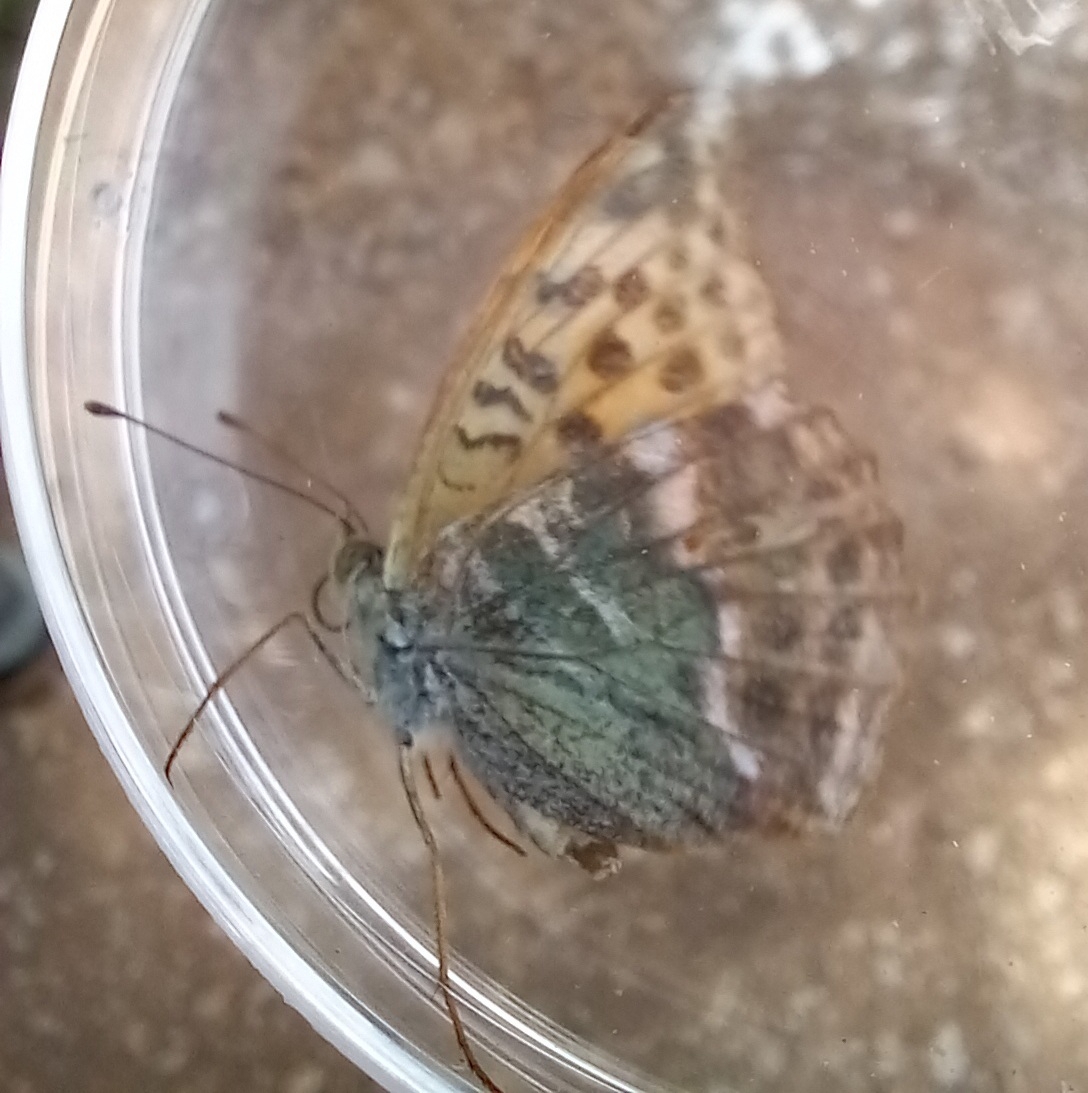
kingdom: Animalia
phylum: Arthropoda
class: Insecta
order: Lepidoptera
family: Nymphalidae
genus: Argynnis
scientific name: Argynnis paphia
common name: Silver-washed fritillary
